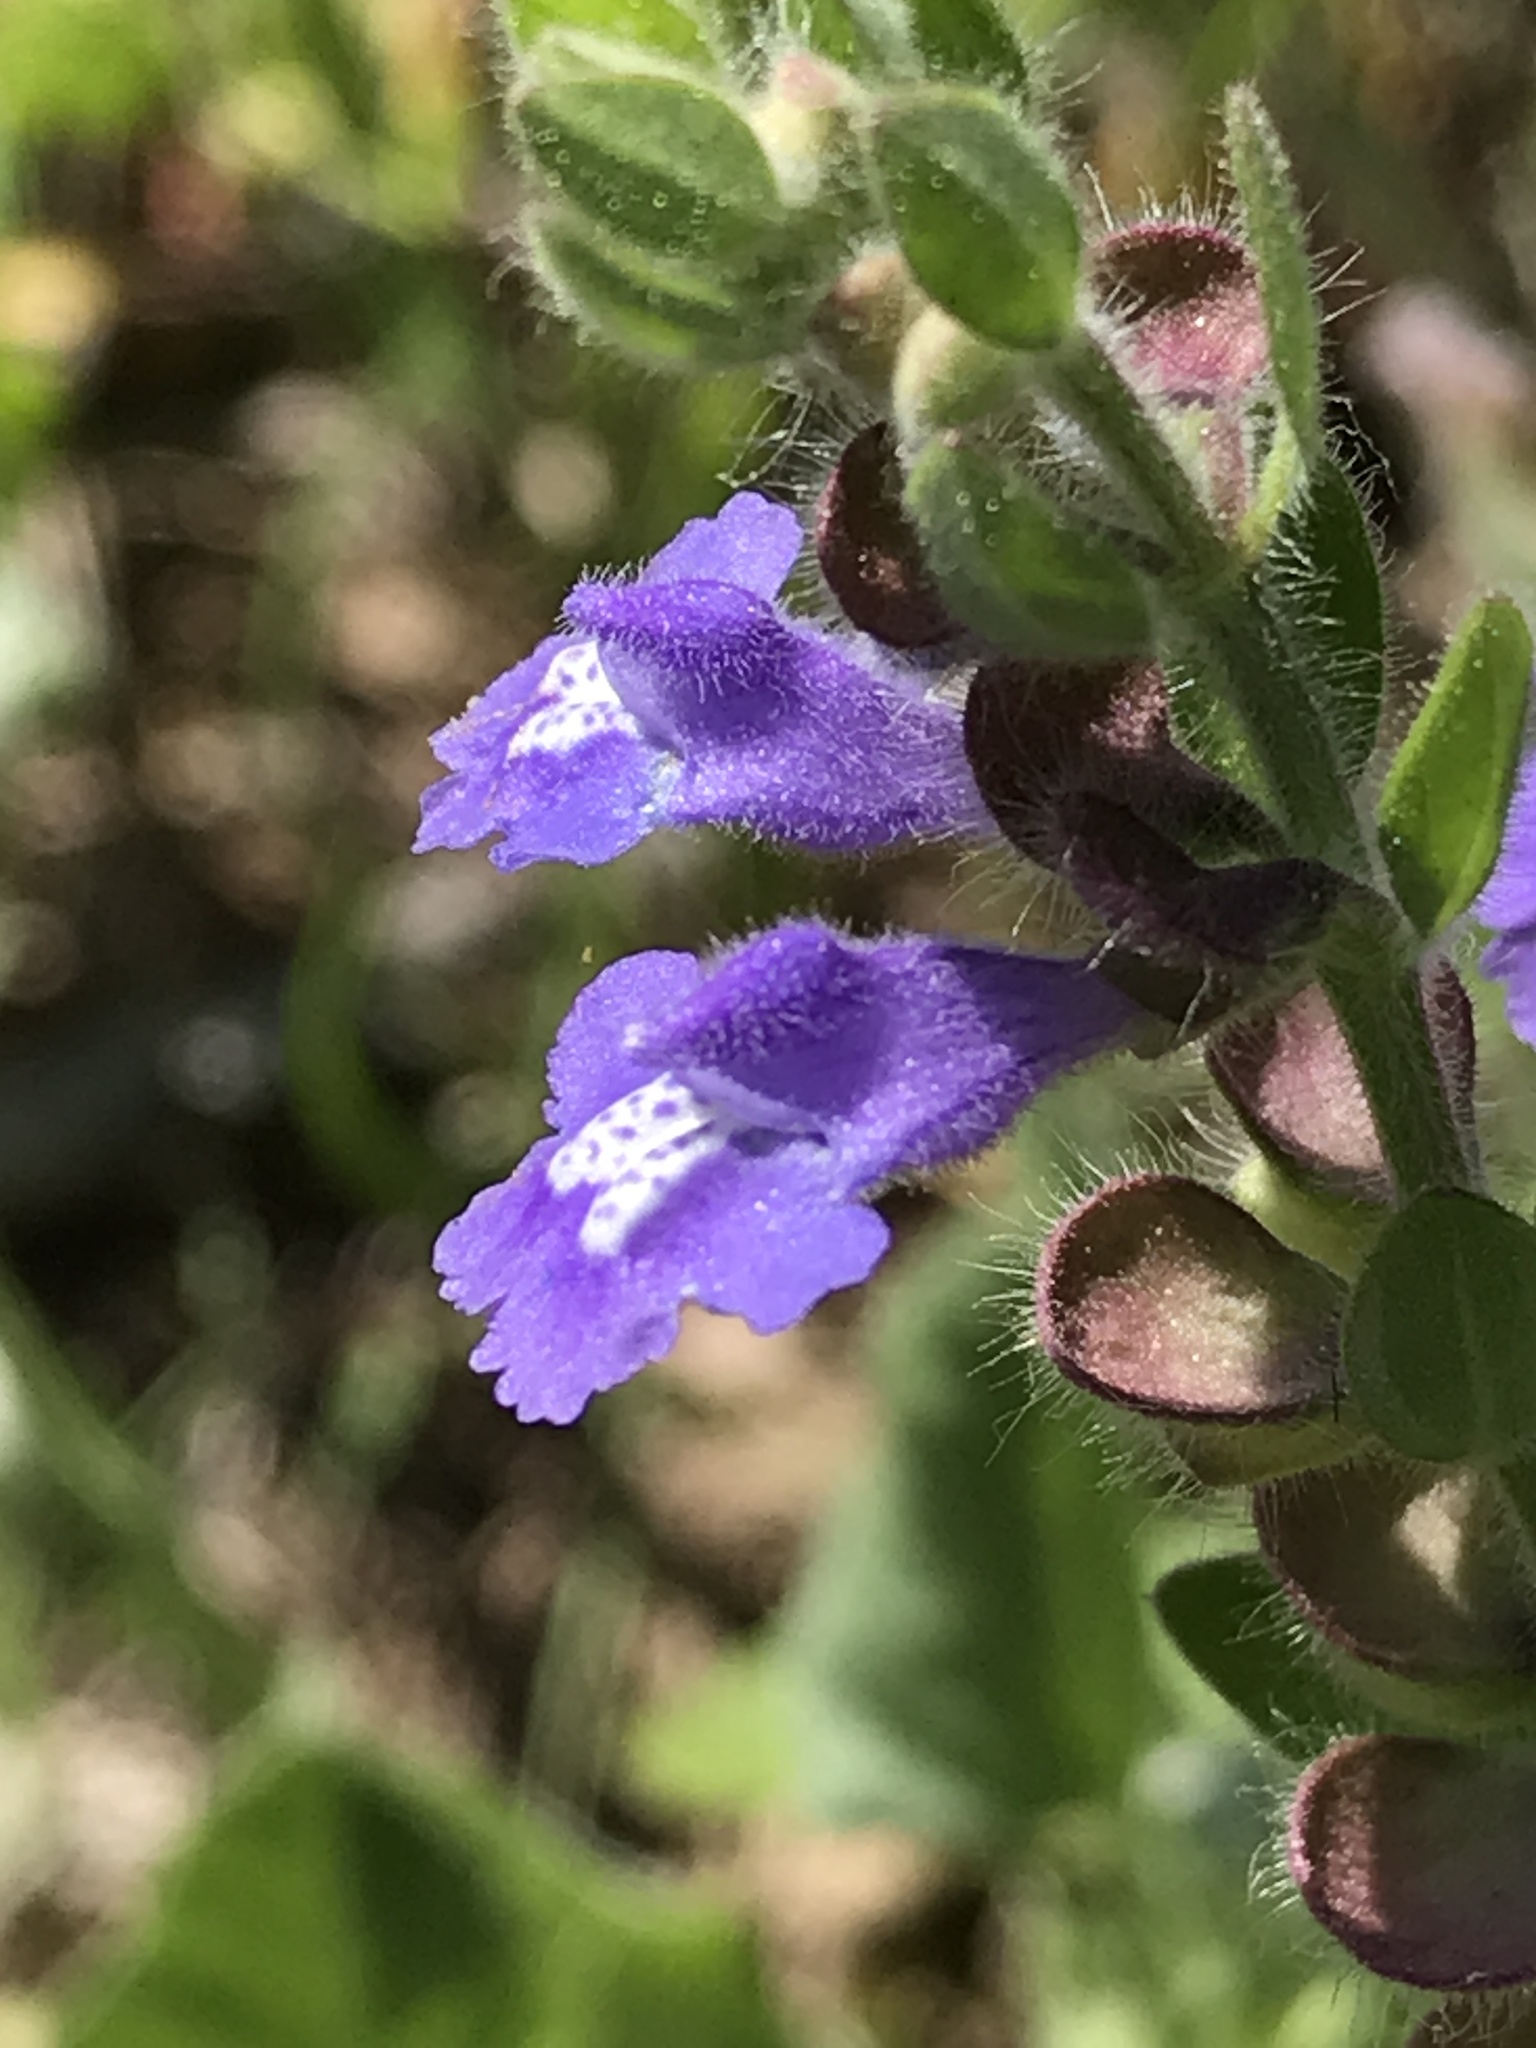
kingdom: Plantae
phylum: Tracheophyta
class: Magnoliopsida
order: Lamiales
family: Lamiaceae
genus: Scutellaria
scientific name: Scutellaria drummondii
